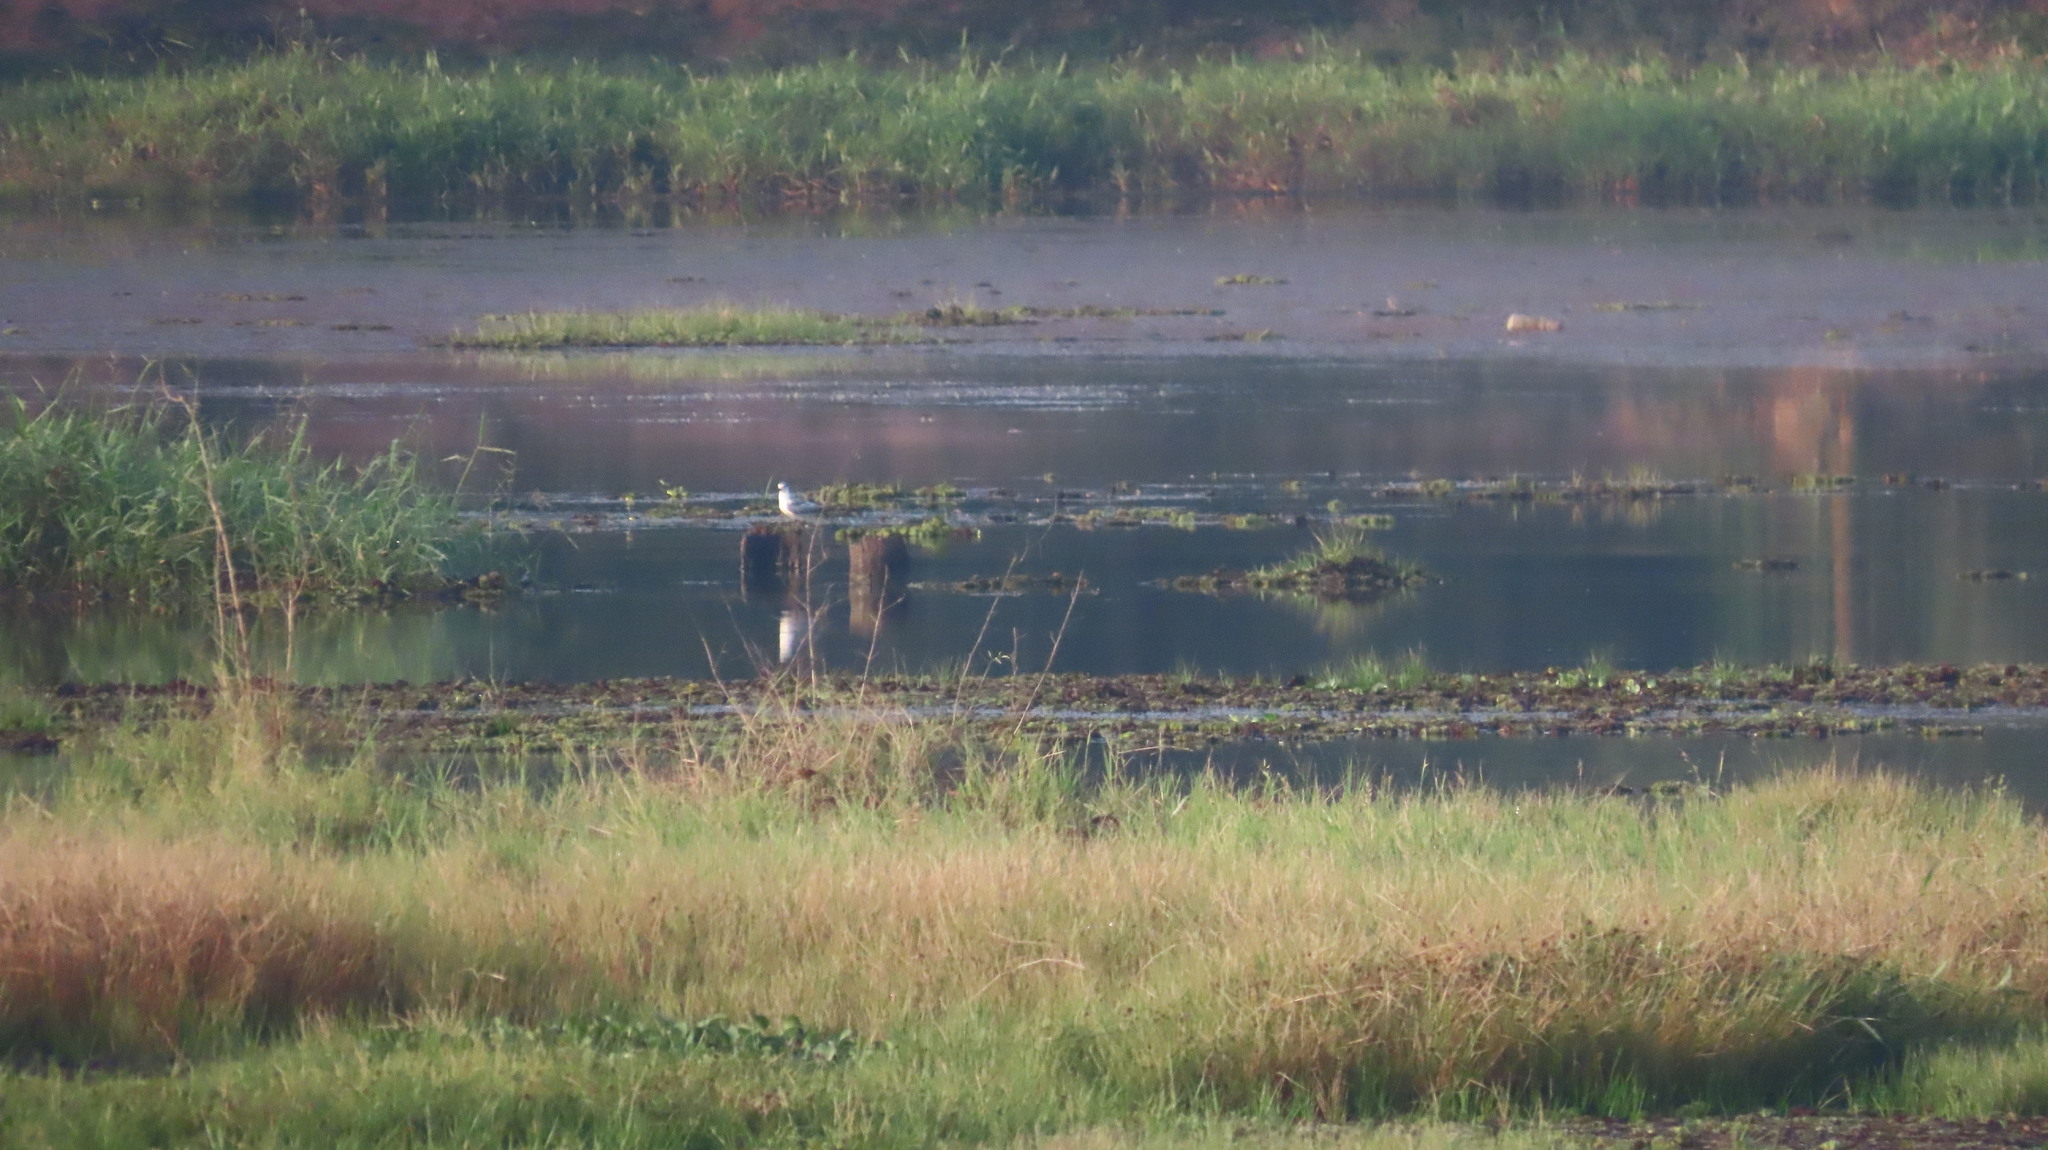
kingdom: Animalia
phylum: Chordata
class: Aves
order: Charadriiformes
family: Laridae
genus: Chlidonias
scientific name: Chlidonias hybrida
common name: Whiskered tern
